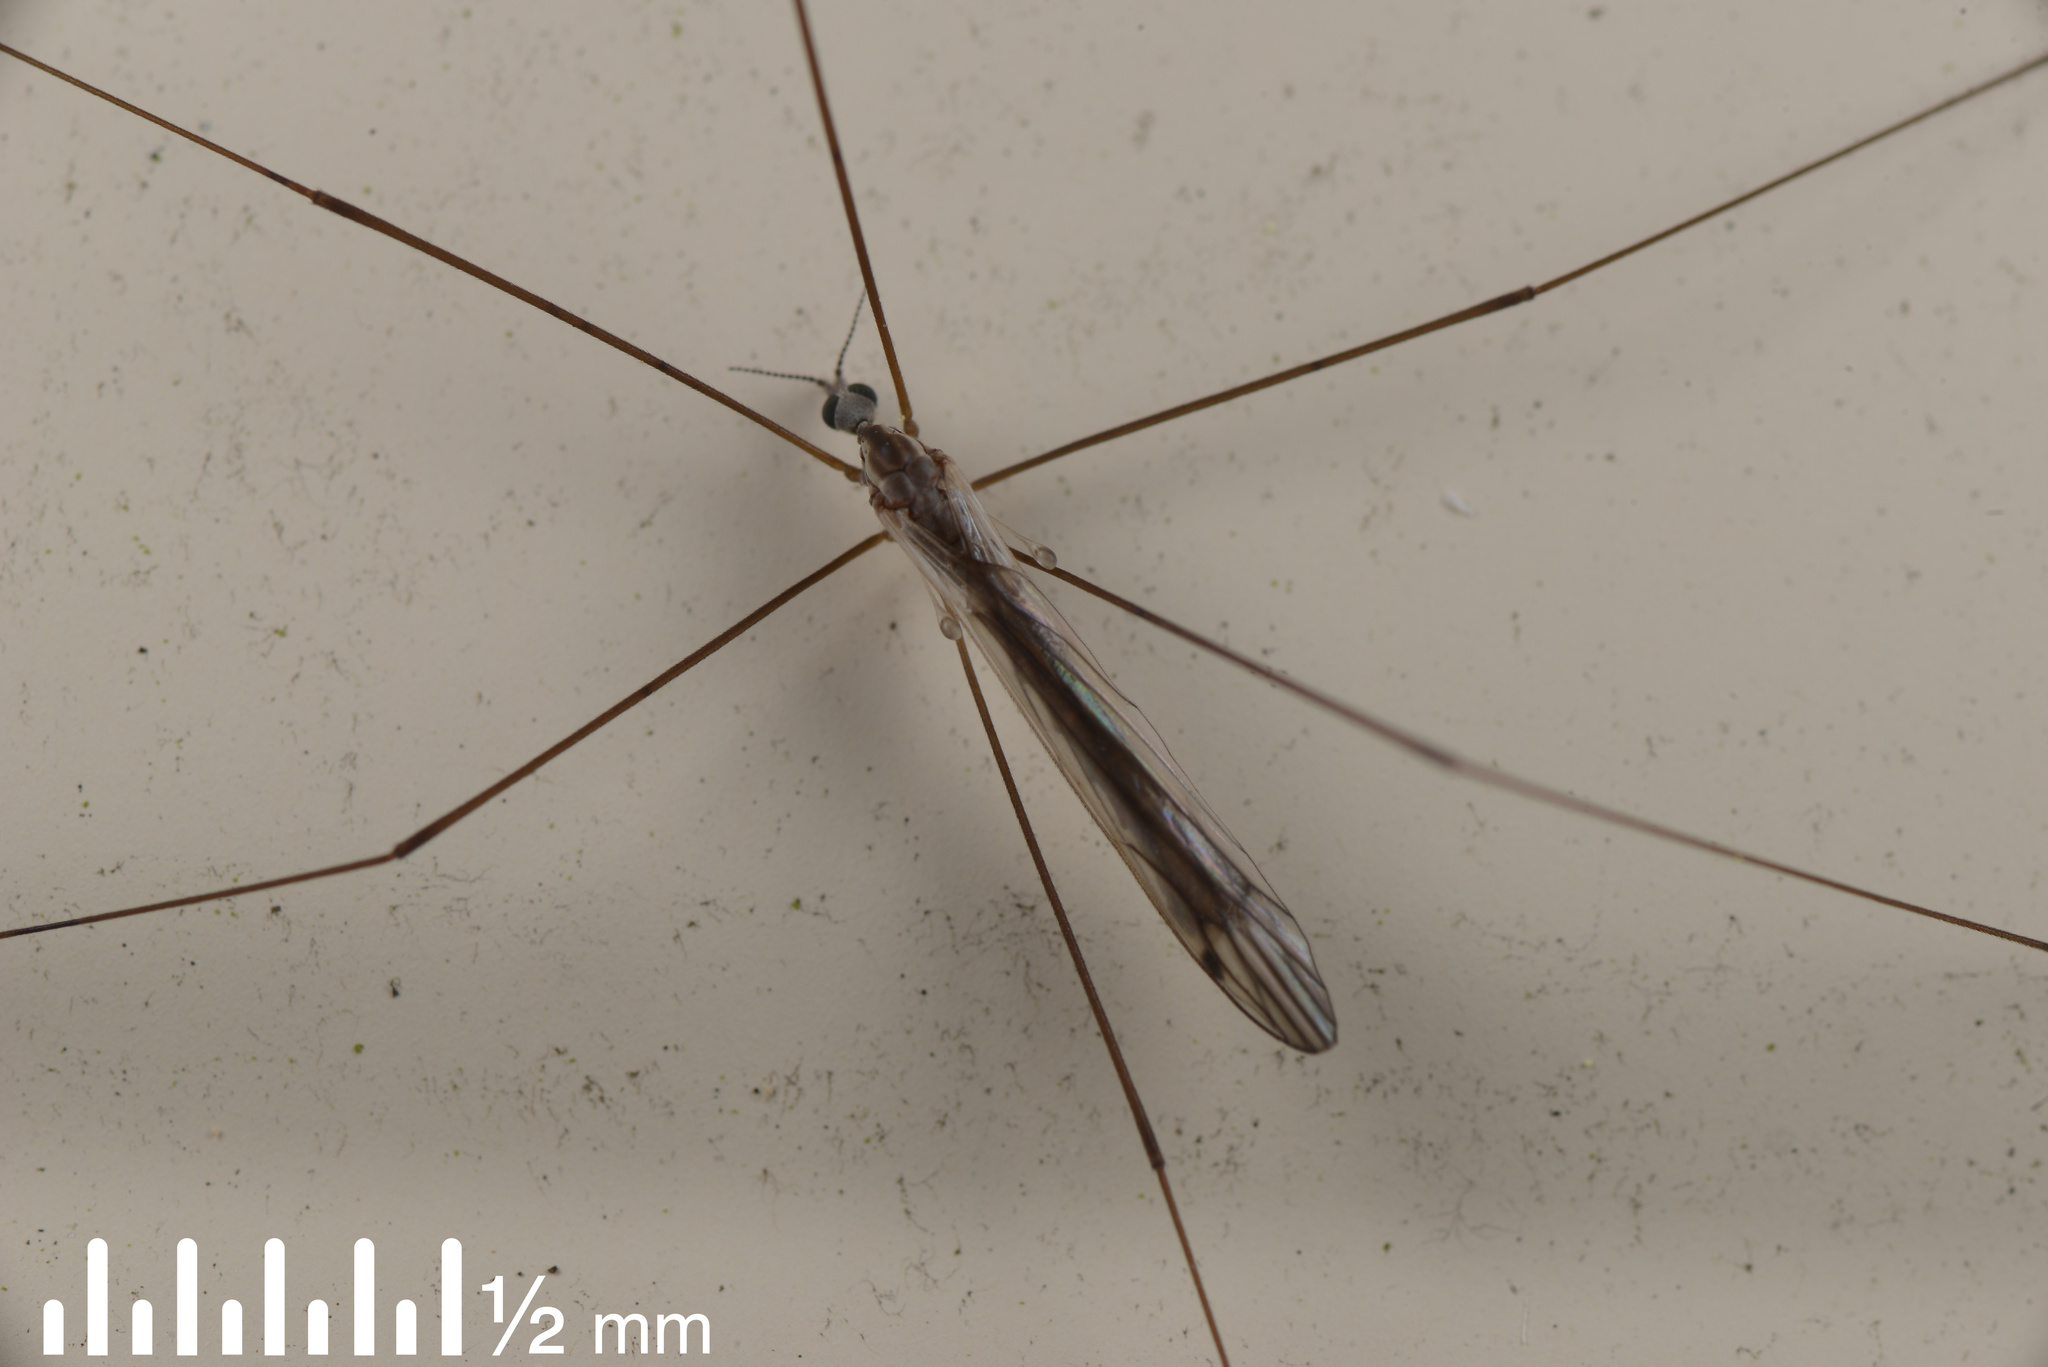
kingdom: Animalia
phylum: Arthropoda
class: Insecta
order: Diptera
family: Limoniidae
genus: Dicranomyia
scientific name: Dicranomyia aegrotans
